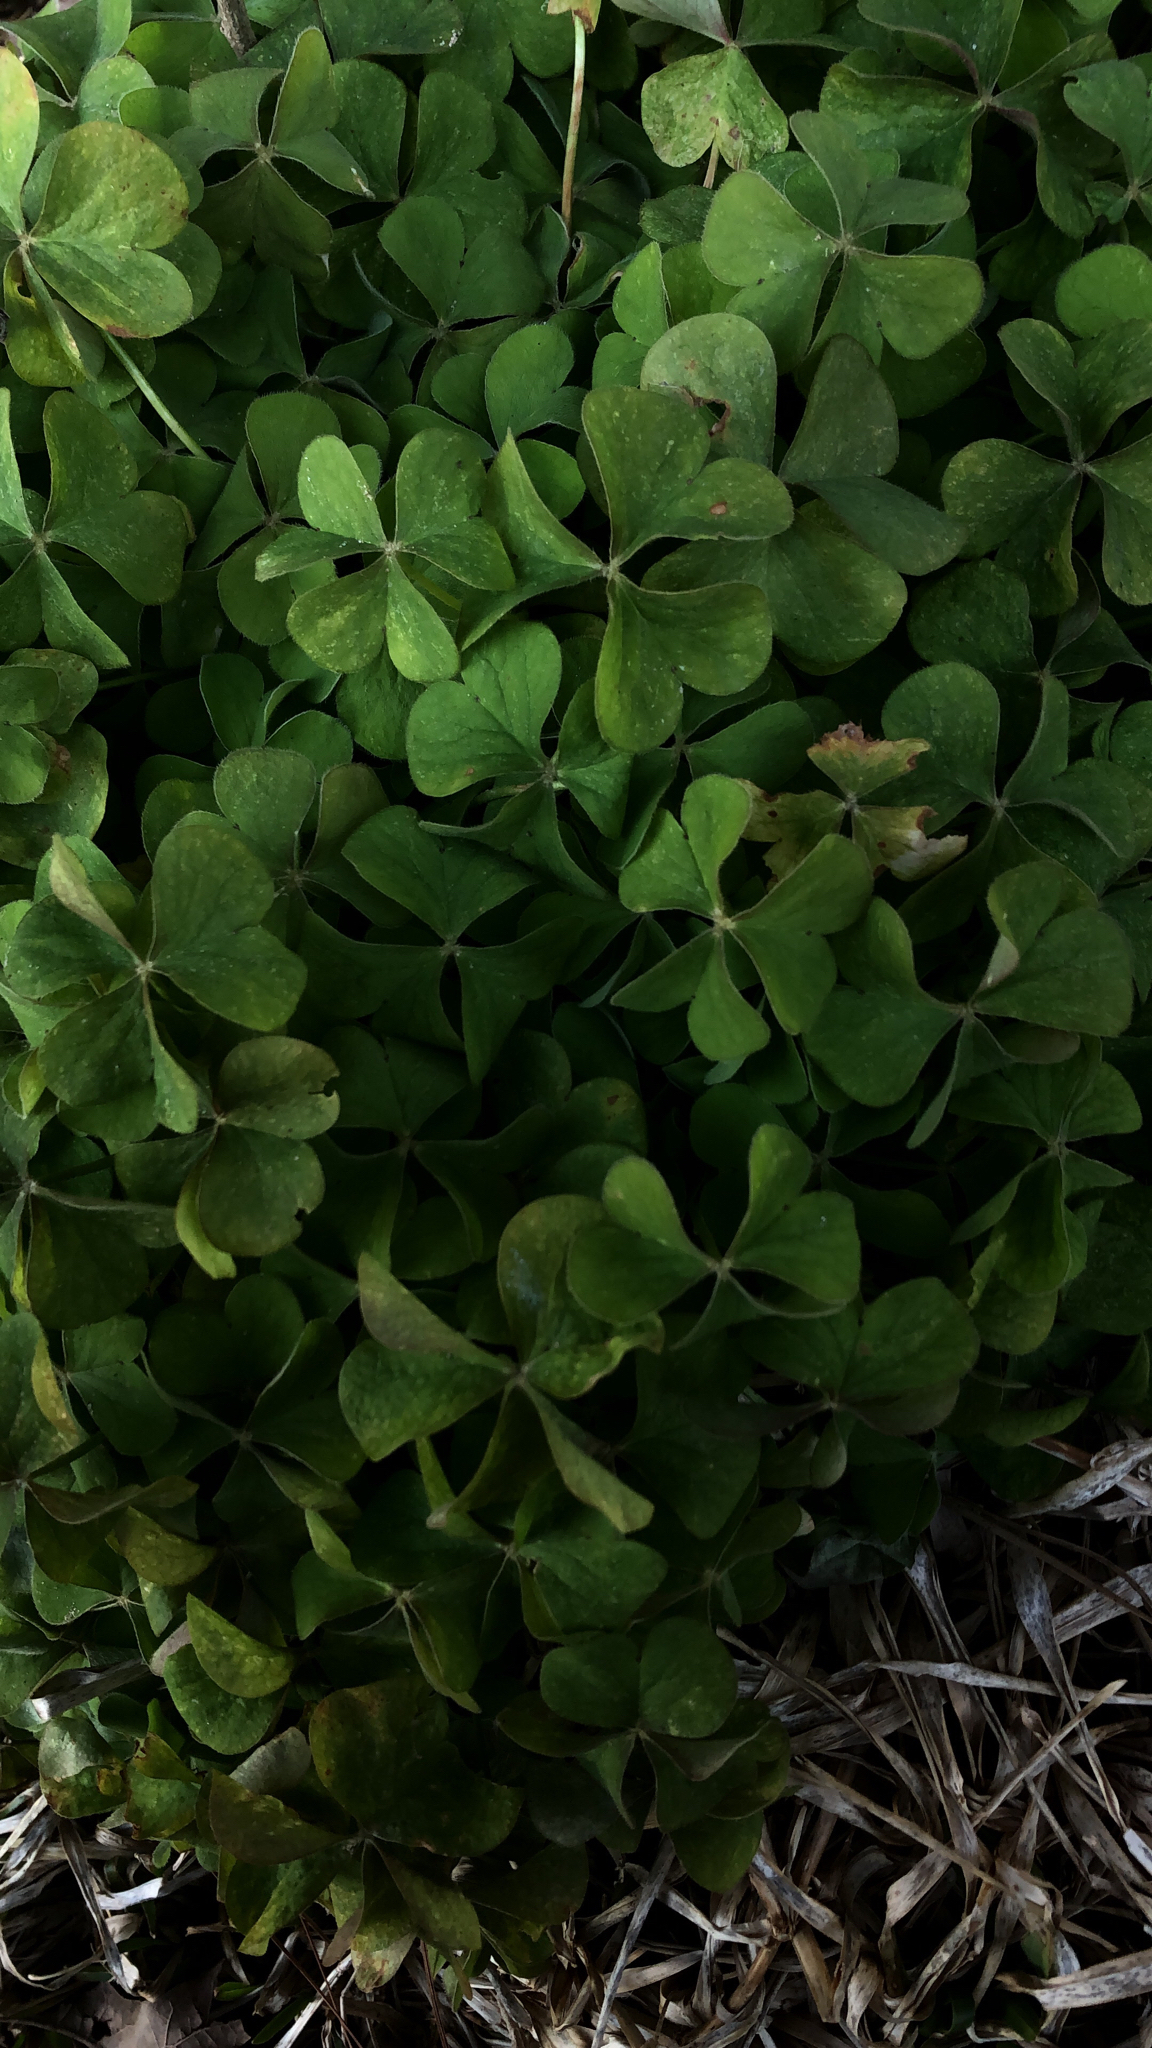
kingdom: Plantae
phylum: Tracheophyta
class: Magnoliopsida
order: Oxalidales
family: Oxalidaceae
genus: Oxalis
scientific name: Oxalis articulata
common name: Pink-sorrel
